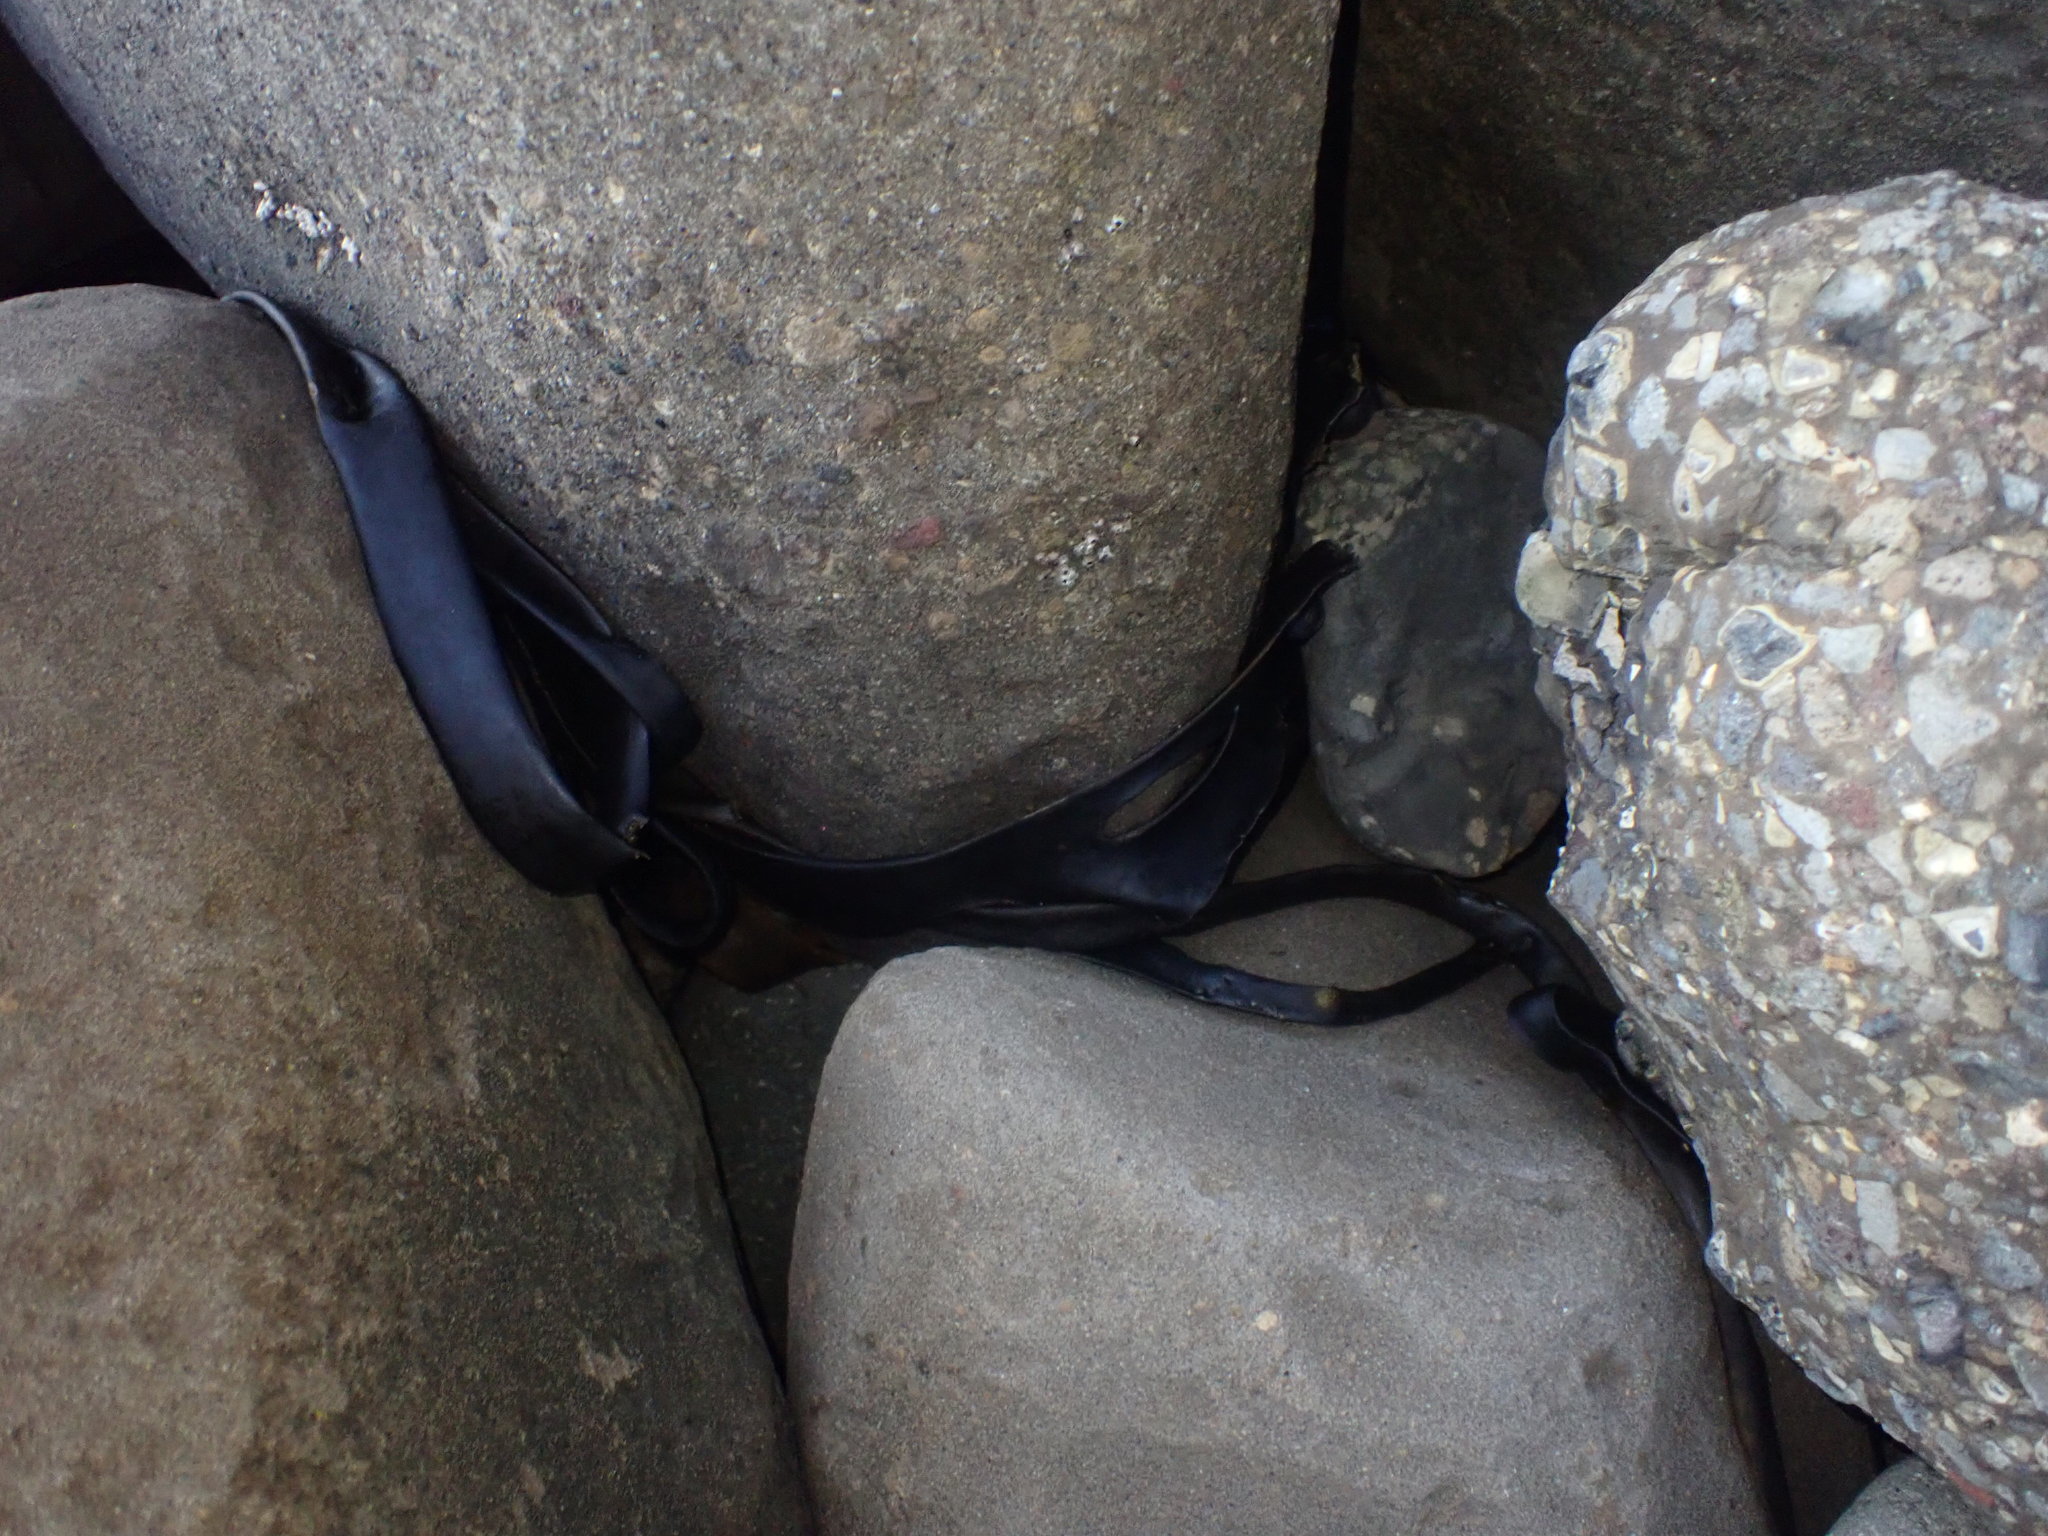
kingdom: Animalia
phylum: Mollusca
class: Gastropoda
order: Trochida
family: Trochidae
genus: Diloma
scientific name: Diloma nigerrimum
